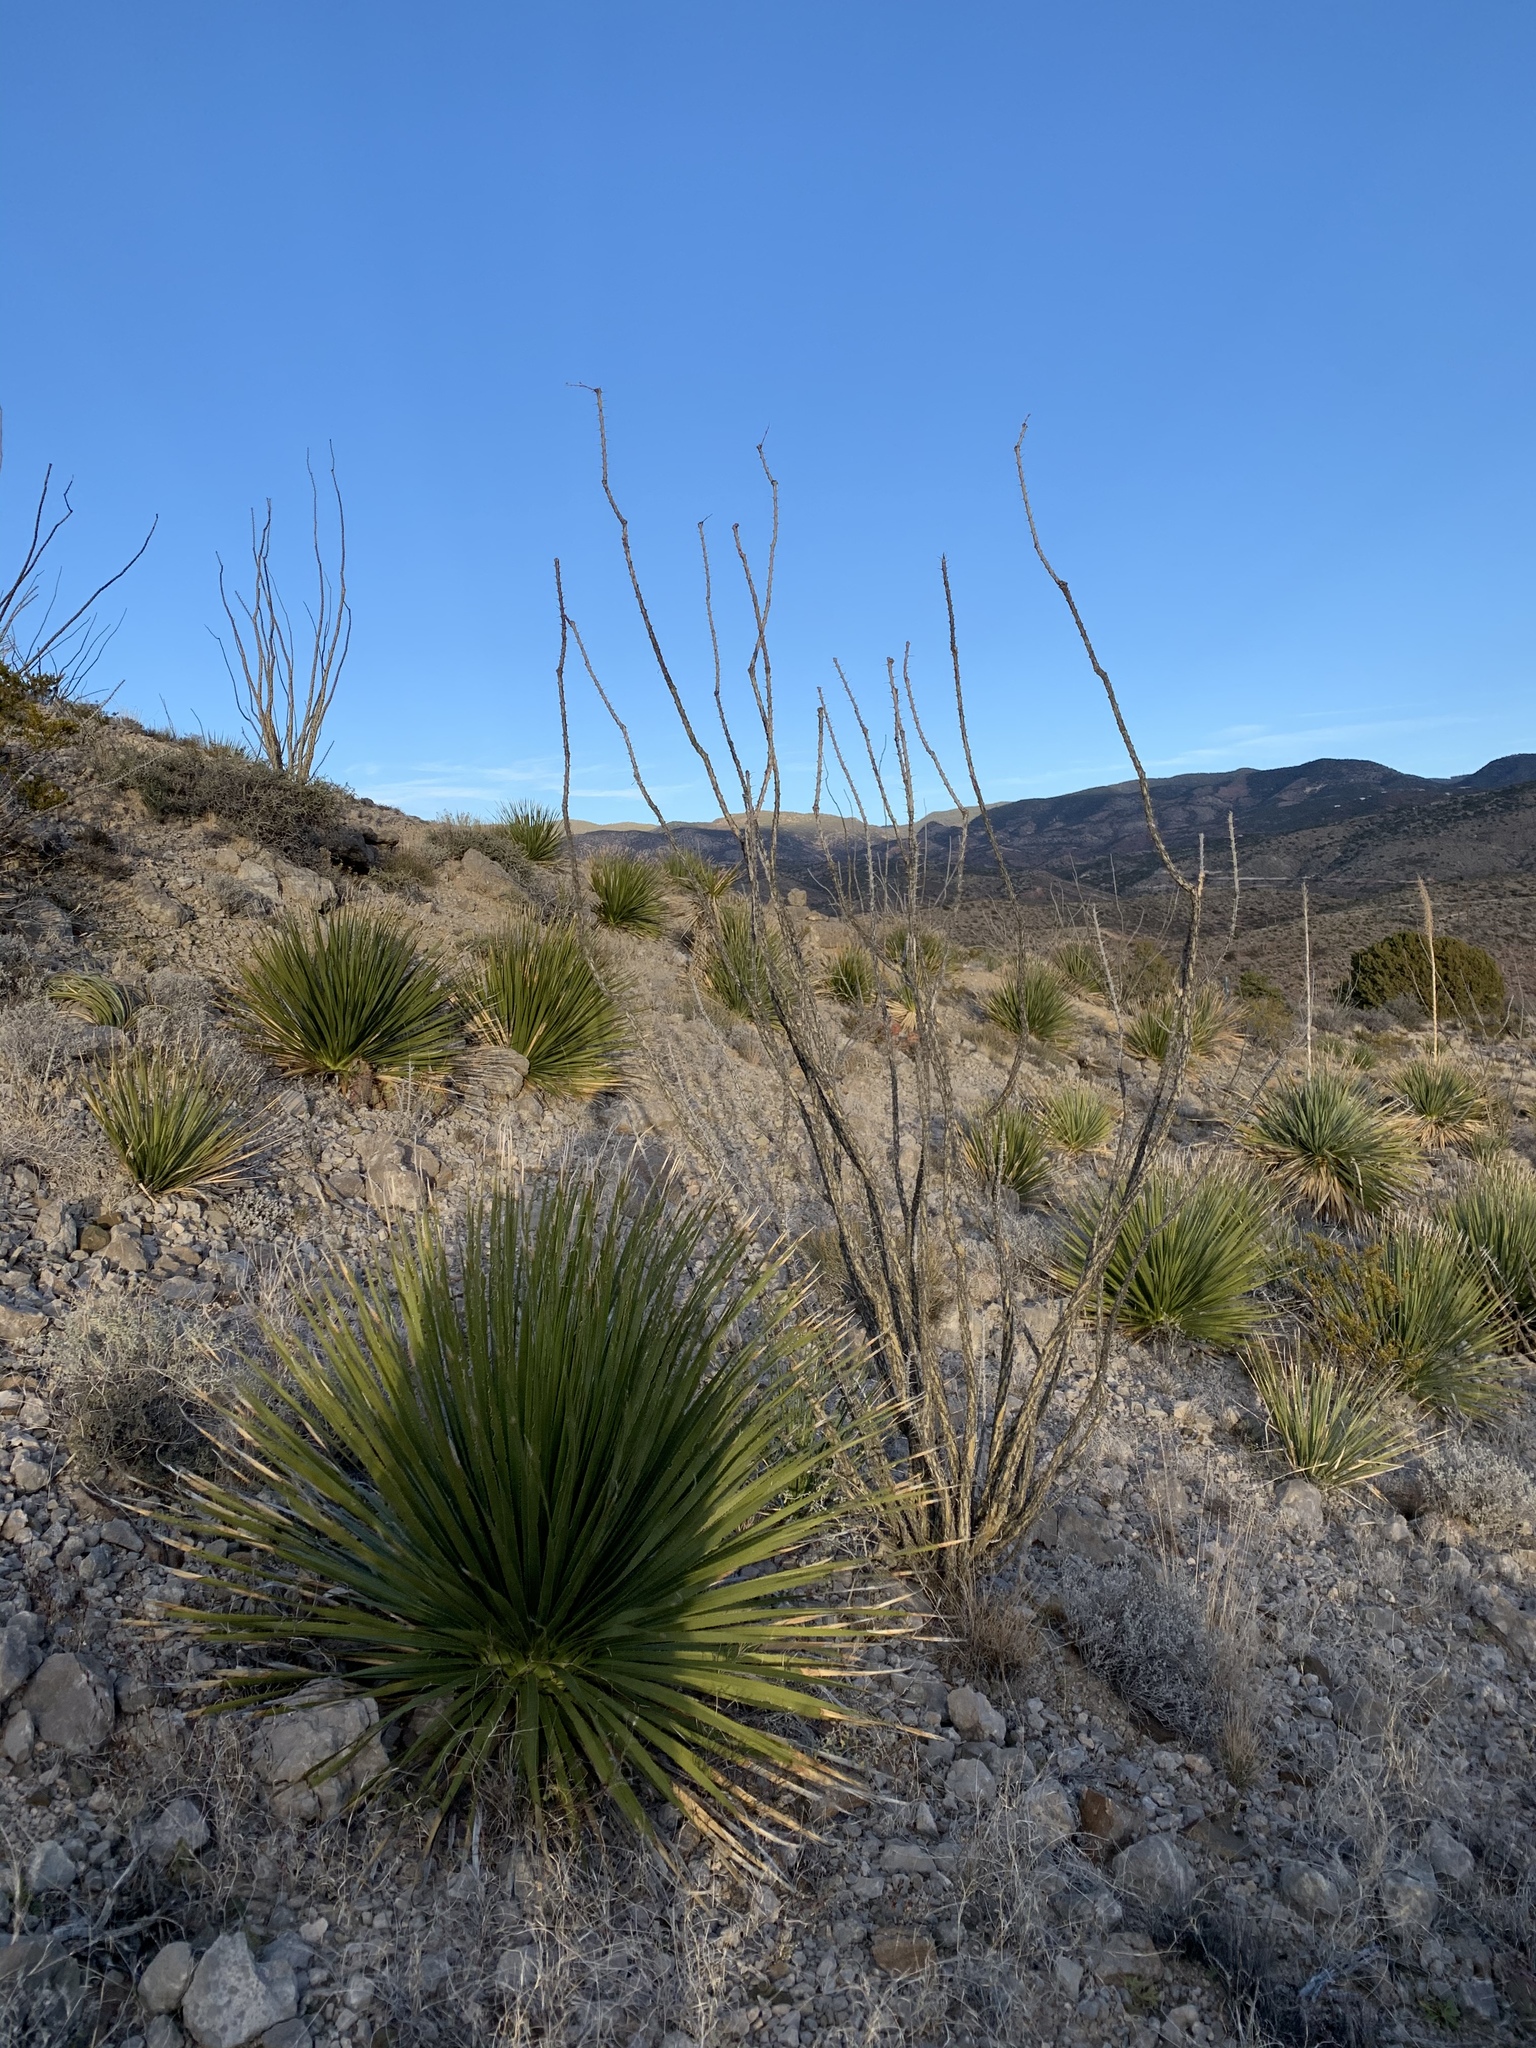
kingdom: Plantae
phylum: Tracheophyta
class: Liliopsida
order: Asparagales
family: Asparagaceae
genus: Dasylirion
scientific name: Dasylirion wheeleri
